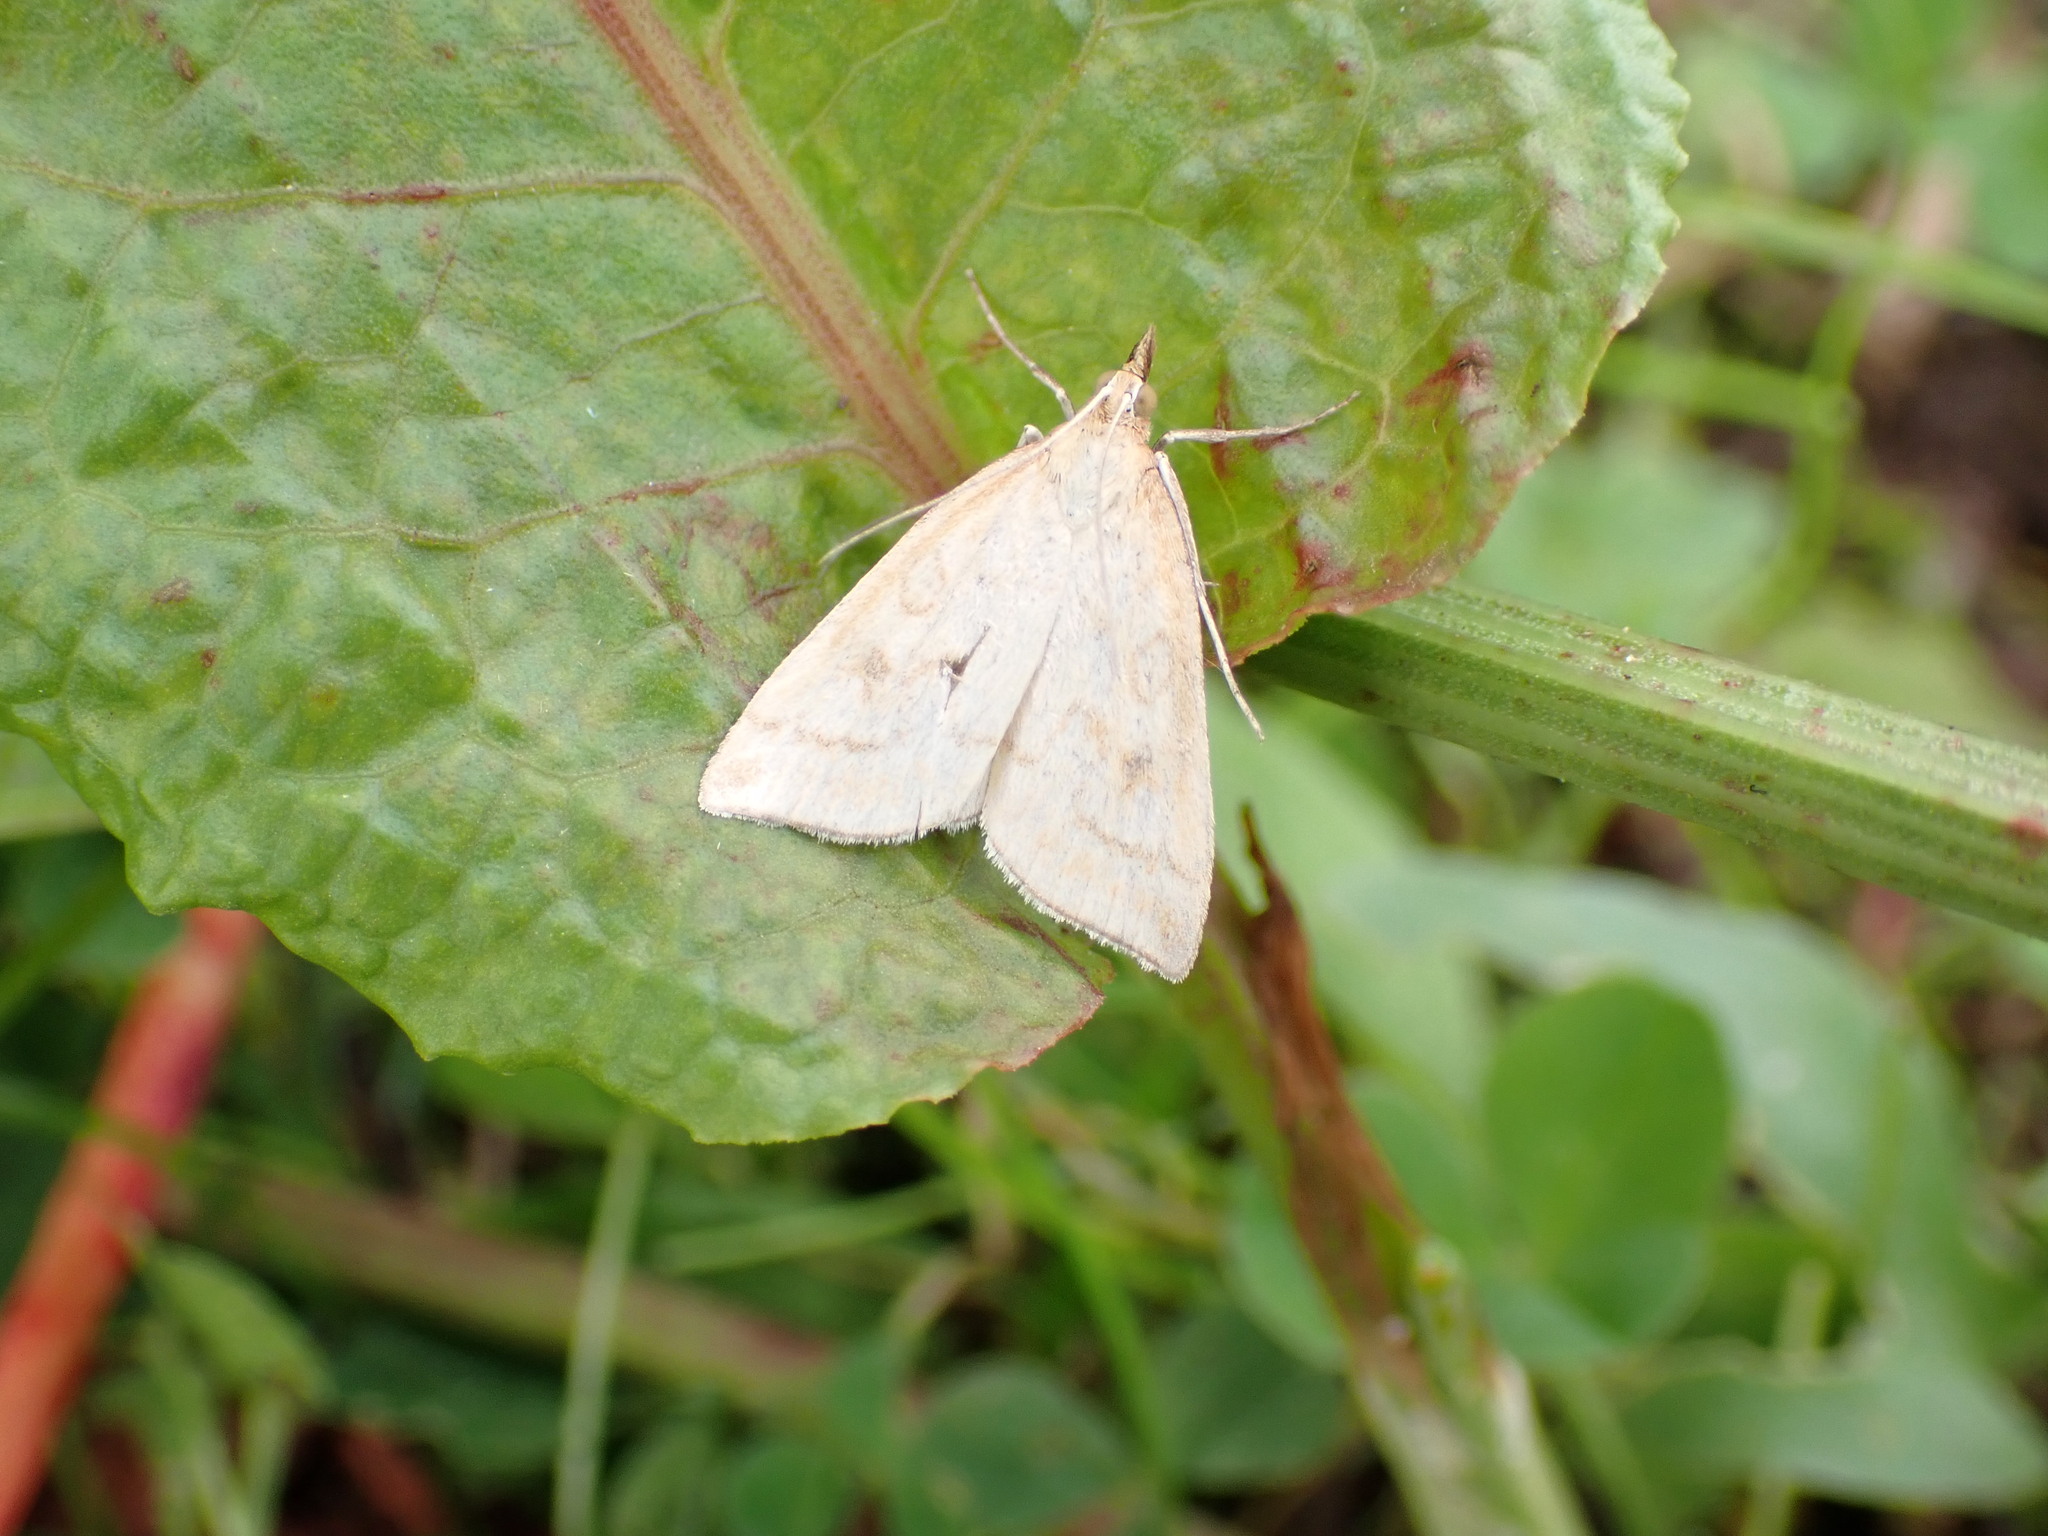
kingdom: Animalia
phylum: Arthropoda
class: Insecta
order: Lepidoptera
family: Crambidae
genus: Udea
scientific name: Udea lutealis
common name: Pale straw pearl
